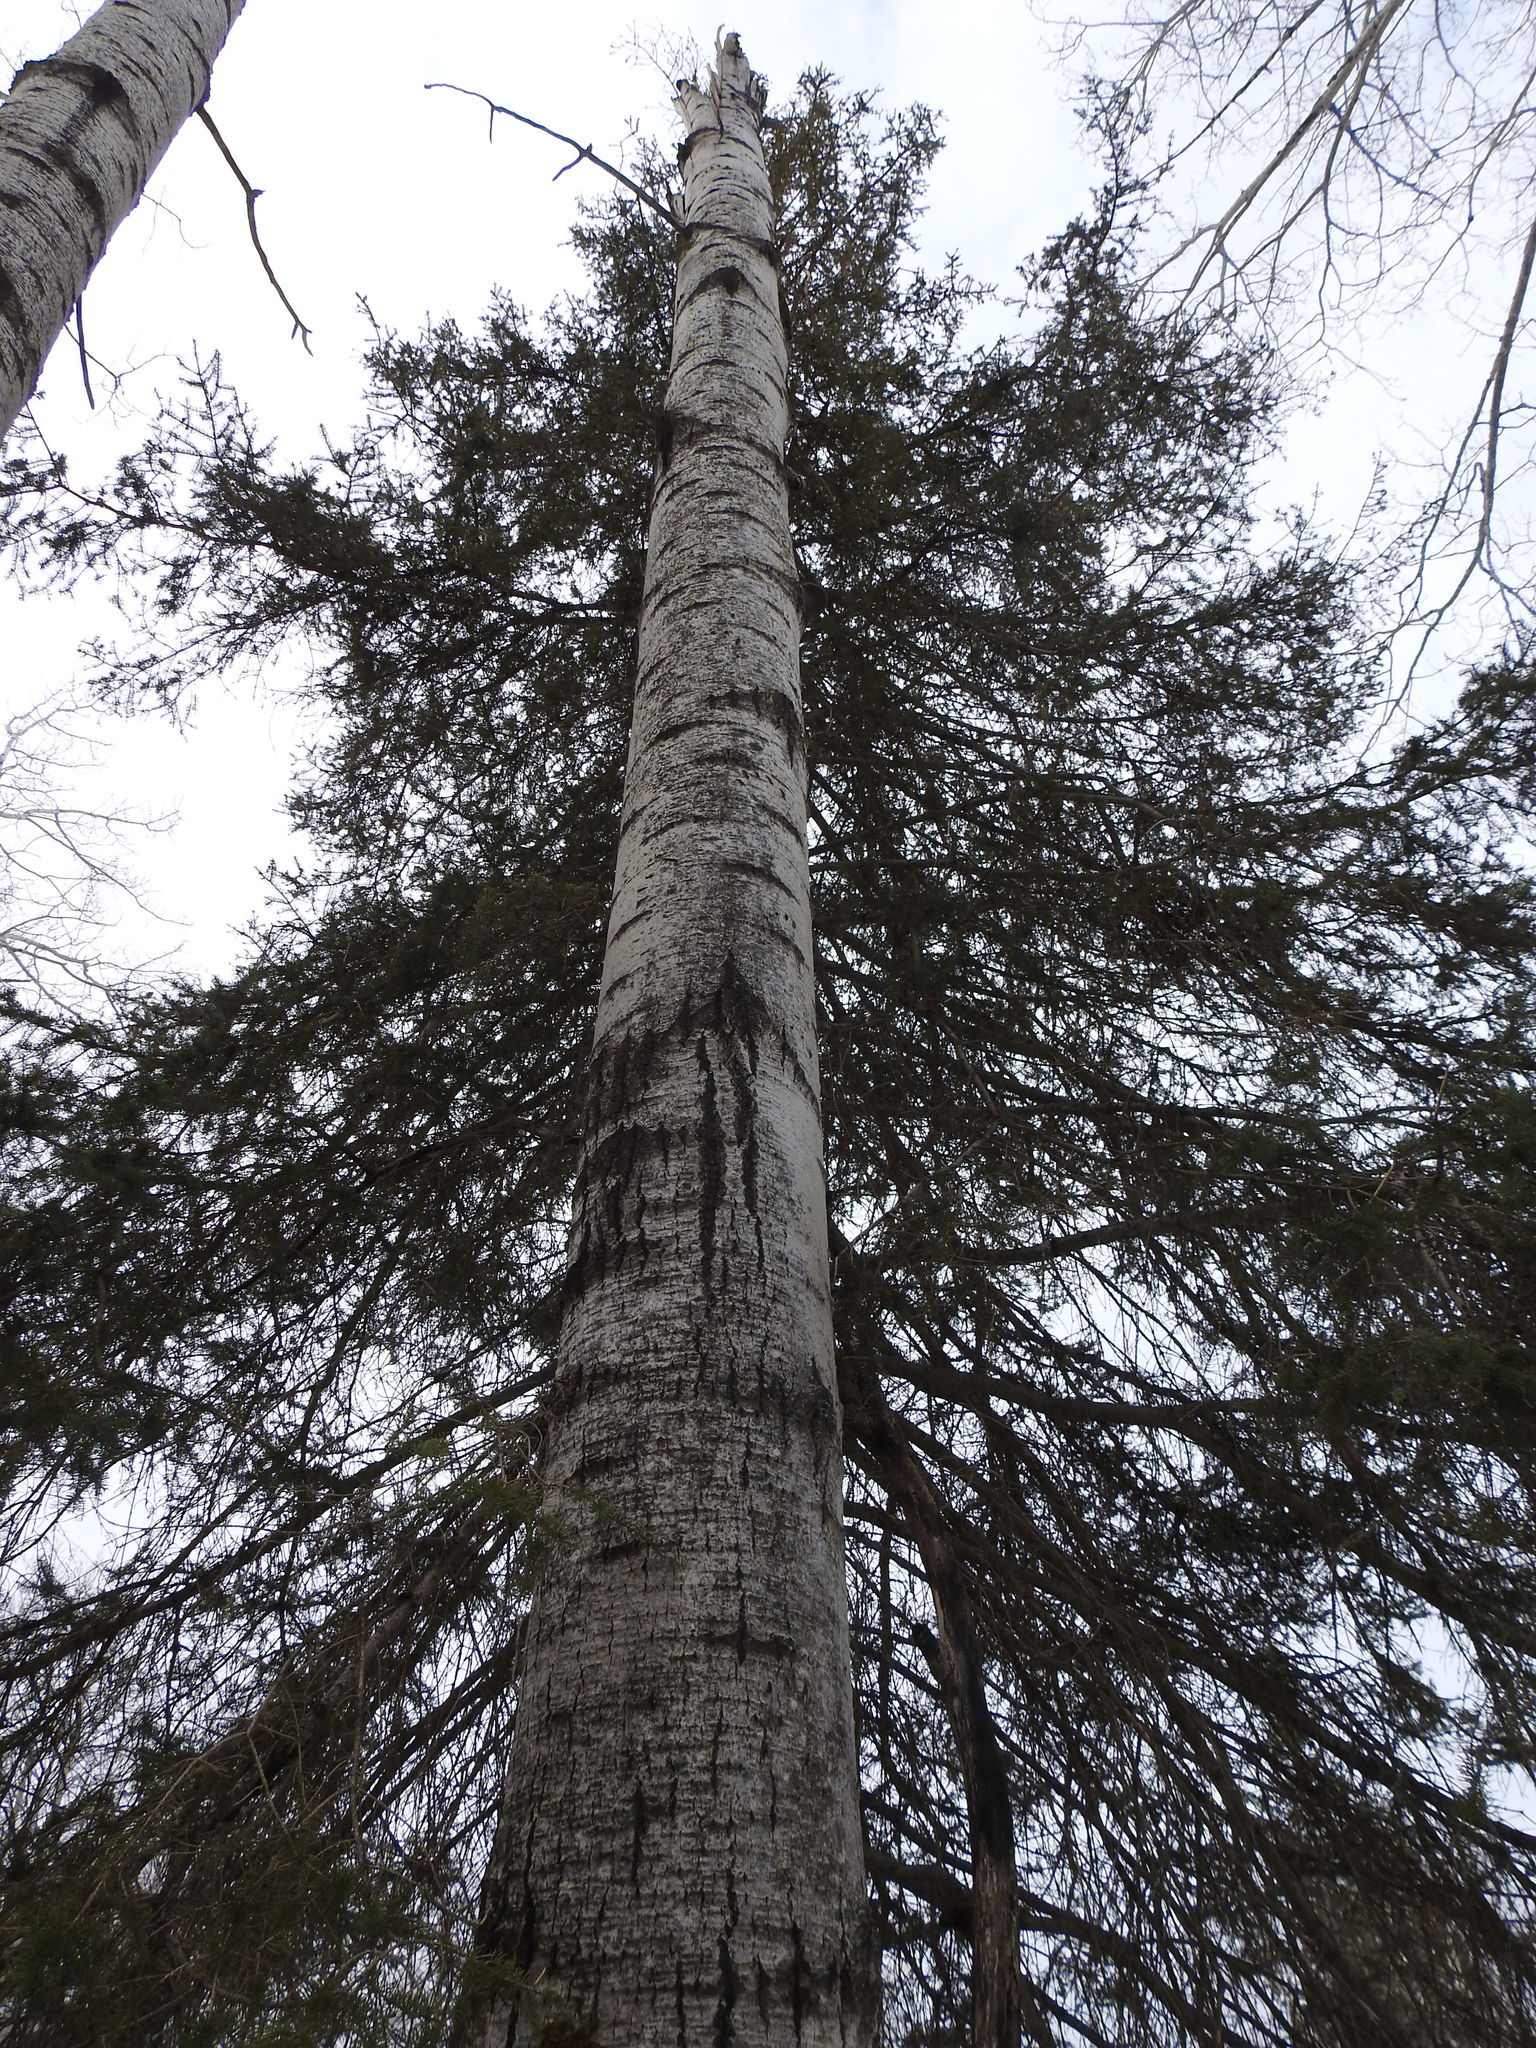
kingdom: Plantae
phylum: Tracheophyta
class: Magnoliopsida
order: Malpighiales
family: Salicaceae
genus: Populus
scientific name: Populus tremuloides
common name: Quaking aspen
